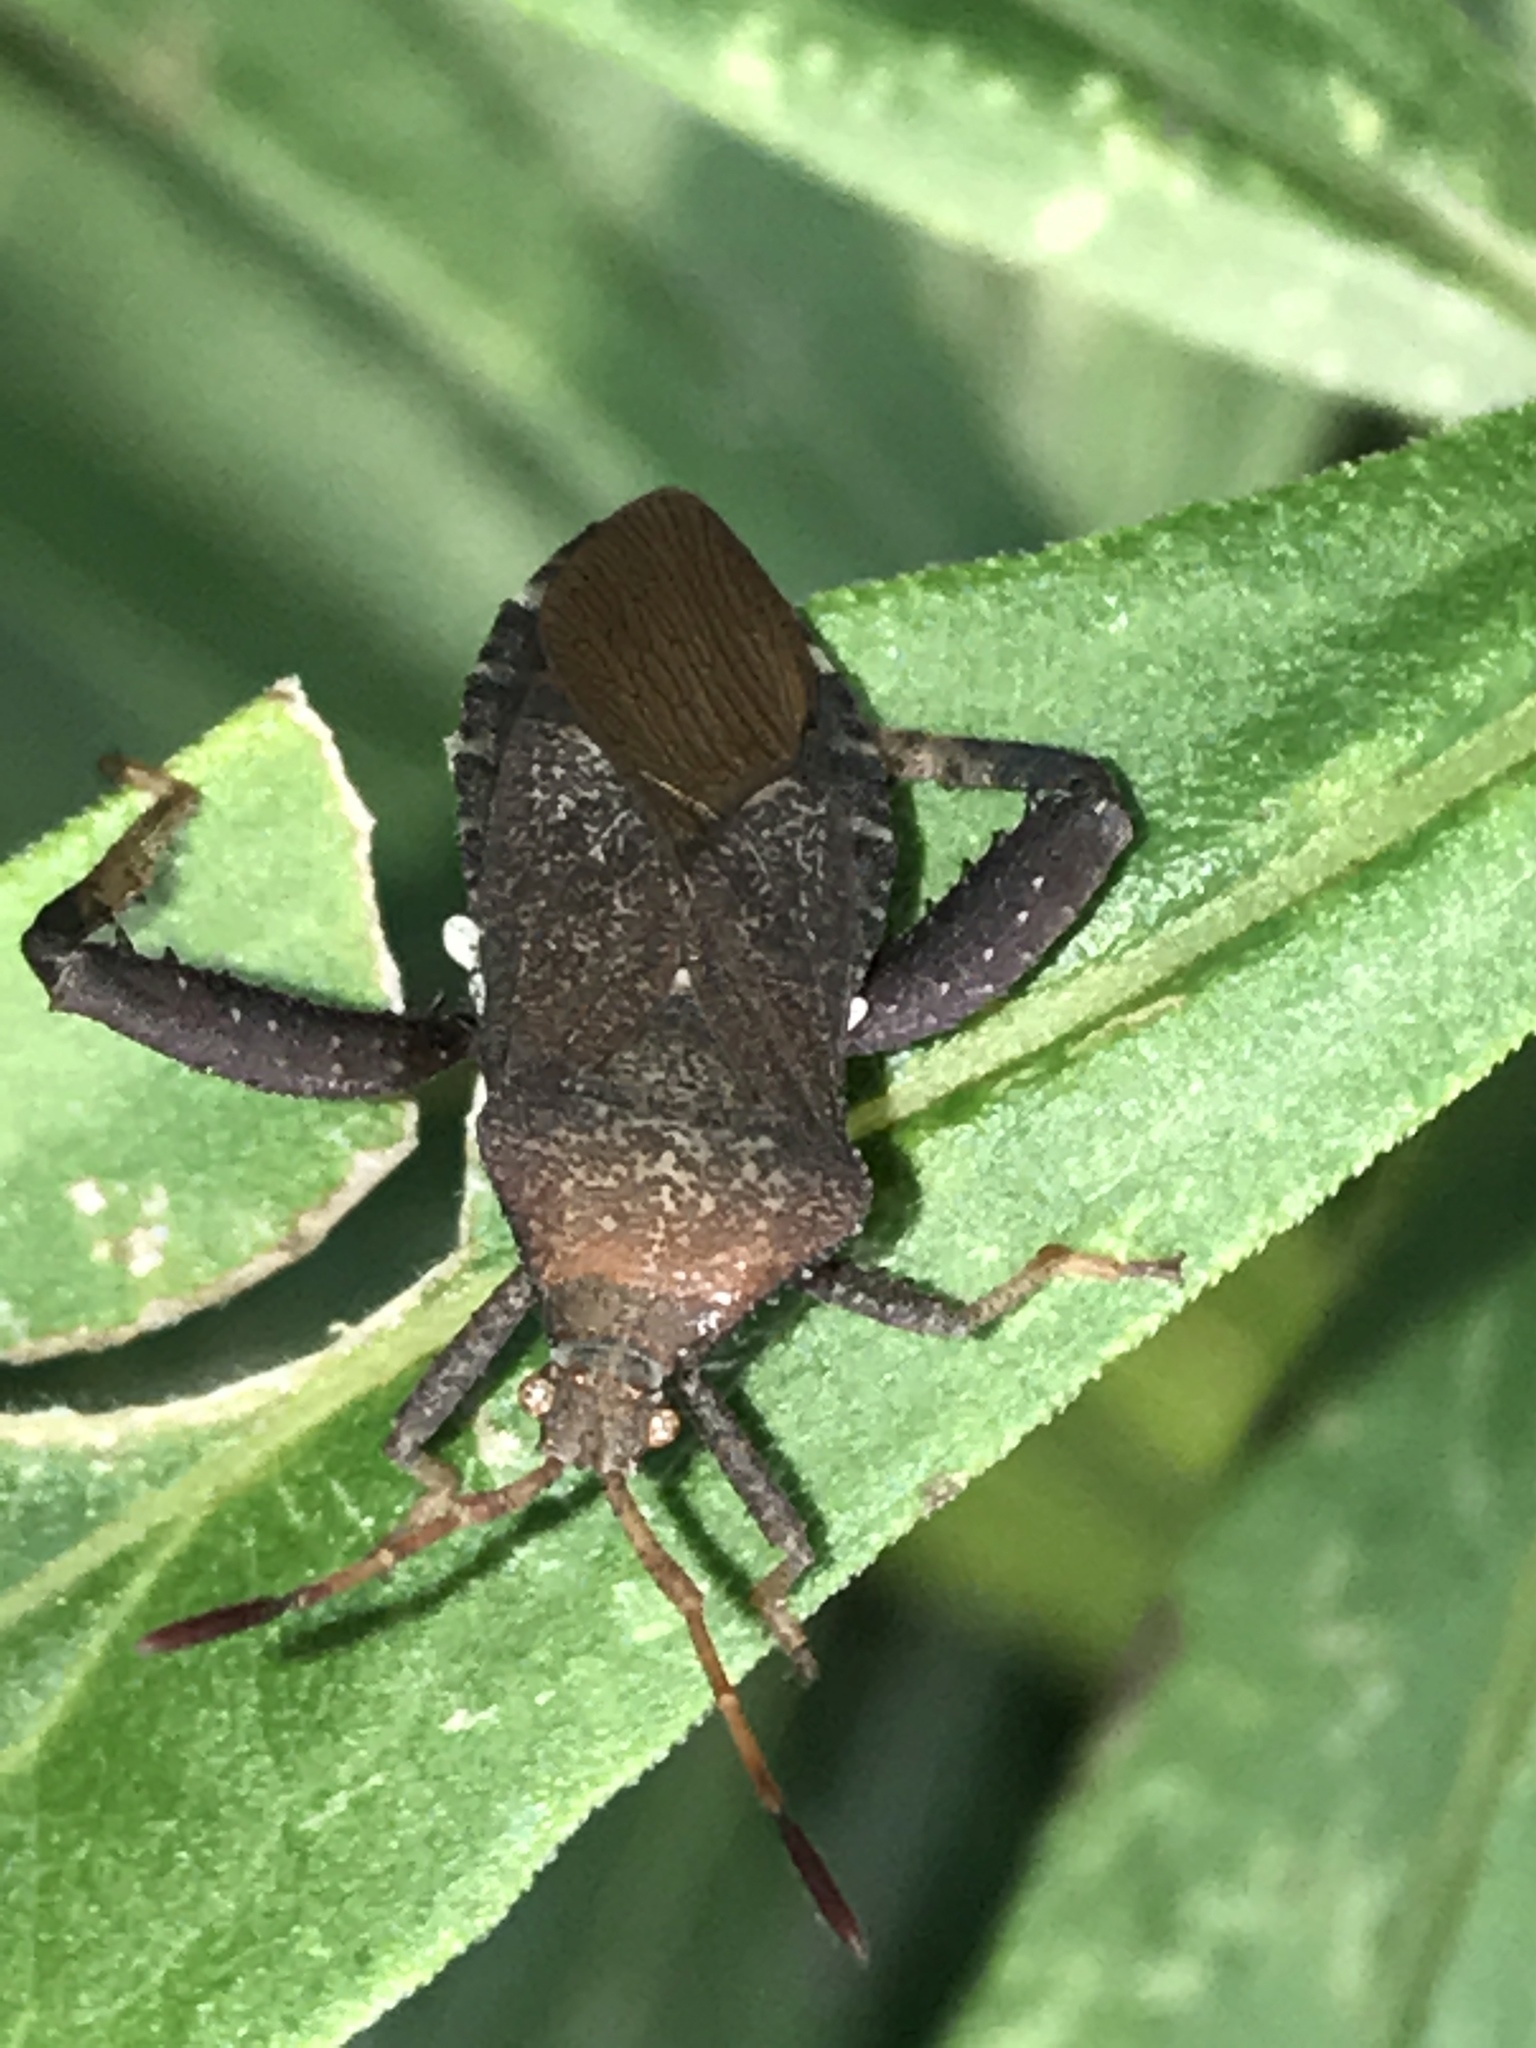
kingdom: Animalia
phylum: Arthropoda
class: Insecta
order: Hemiptera
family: Coreidae
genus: Euthochtha
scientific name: Euthochtha galeator
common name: Helmeted squash bug
